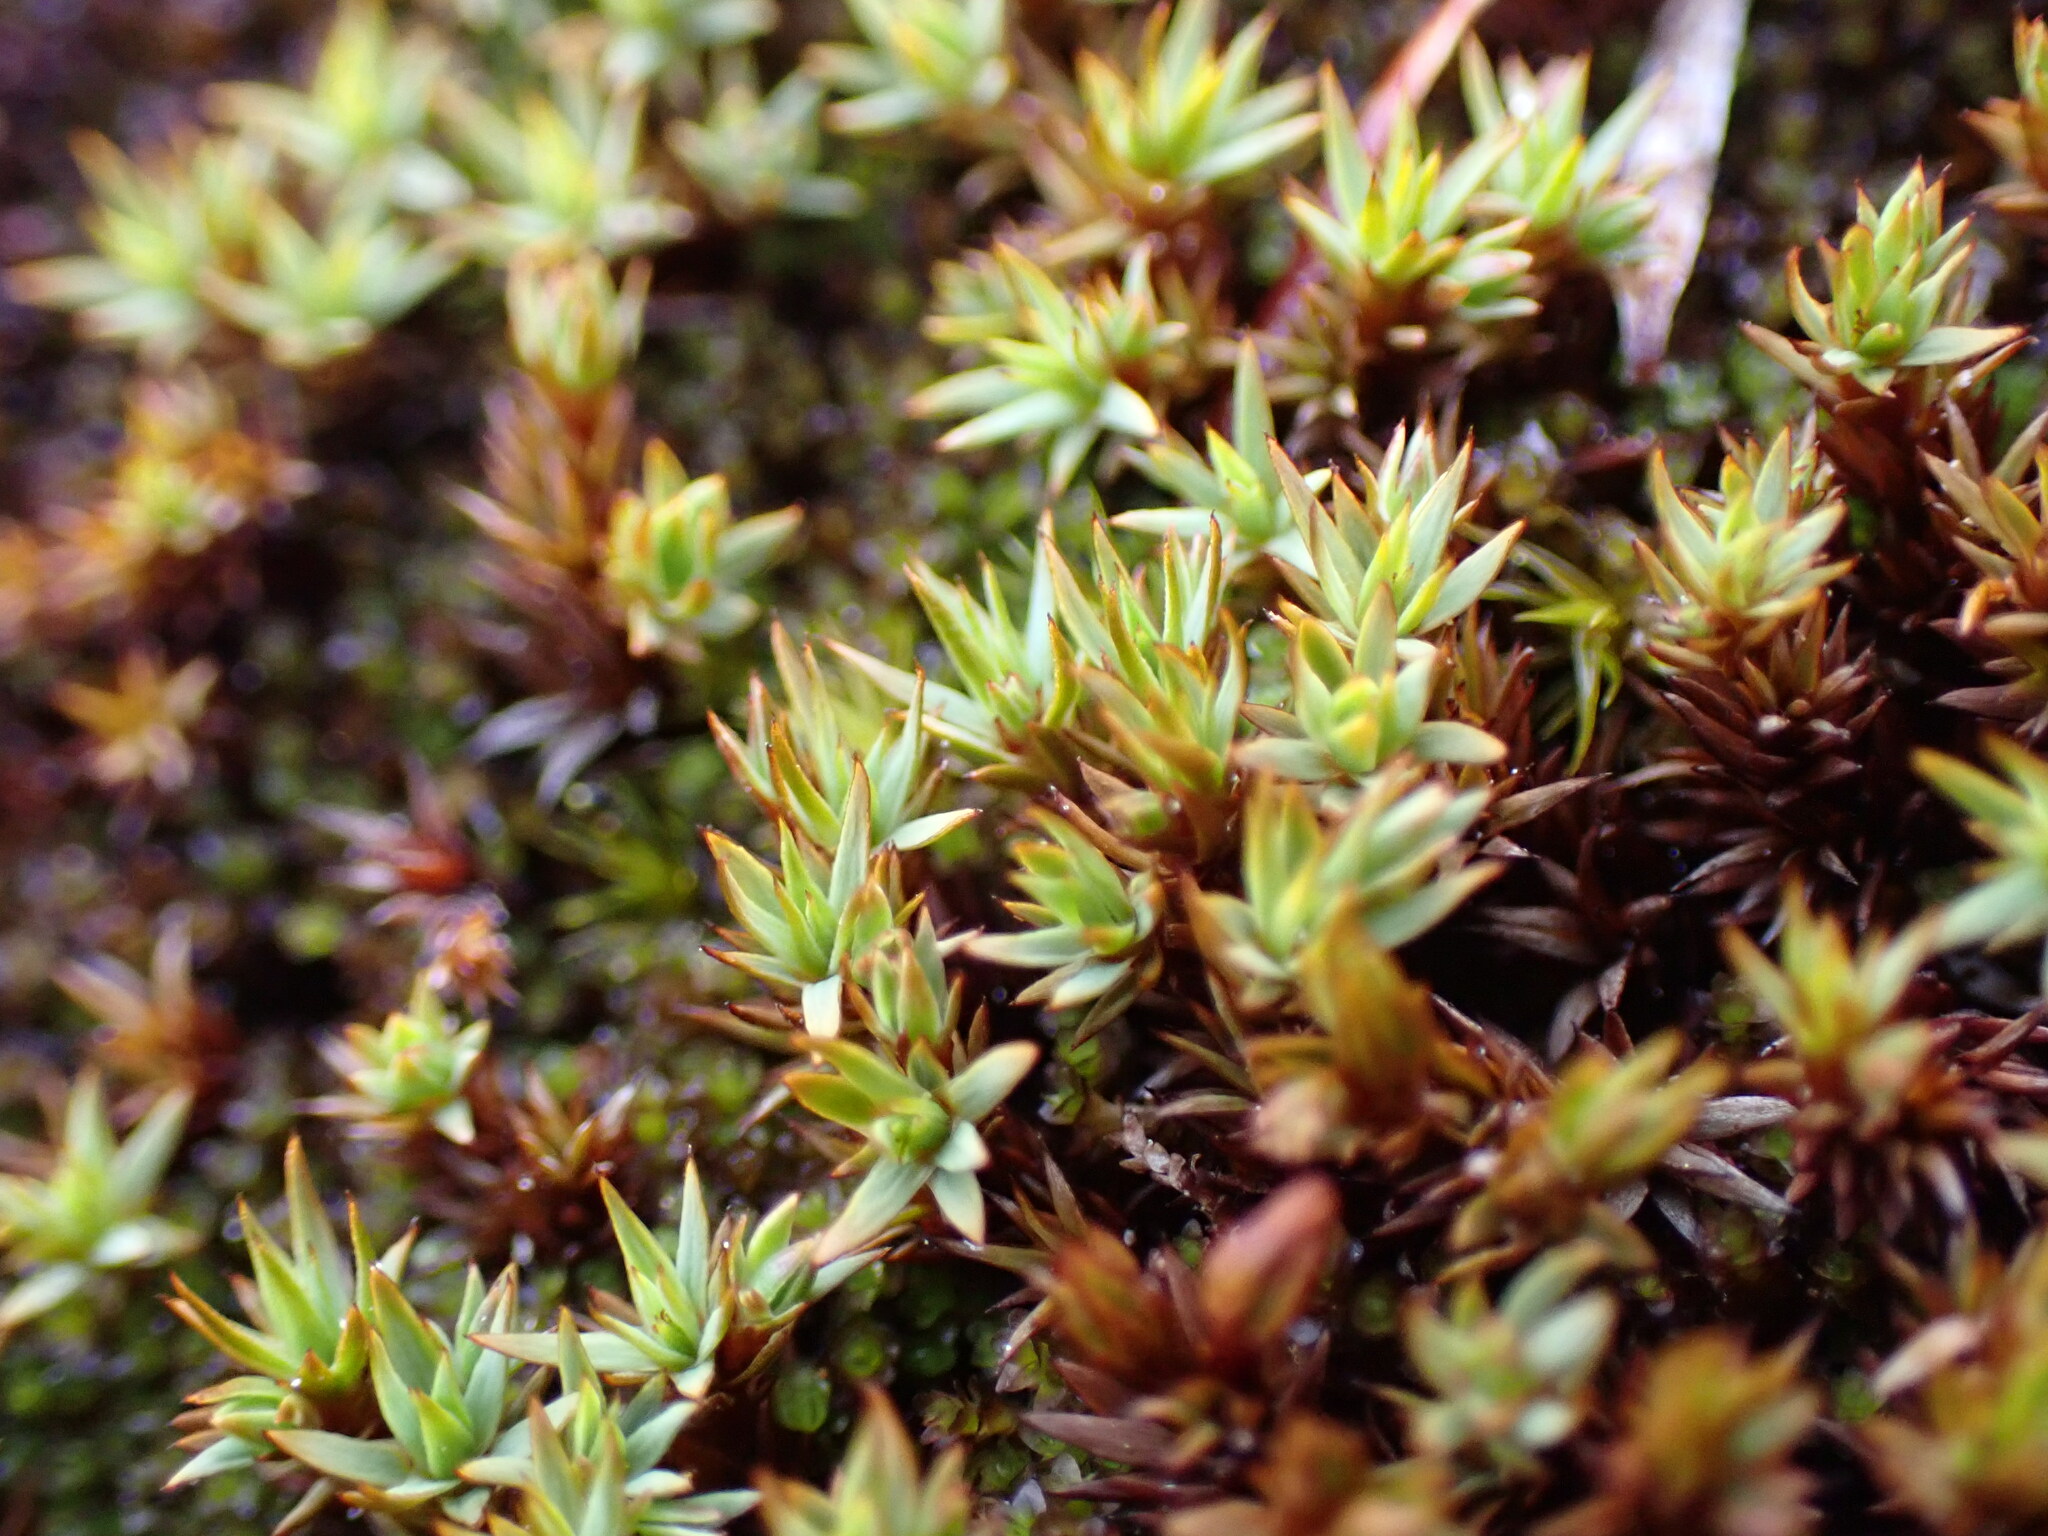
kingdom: Plantae
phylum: Bryophyta
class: Polytrichopsida
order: Polytrichales
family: Polytrichaceae
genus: Pogonatum
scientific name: Pogonatum urnigerum
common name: Urn hair moss
